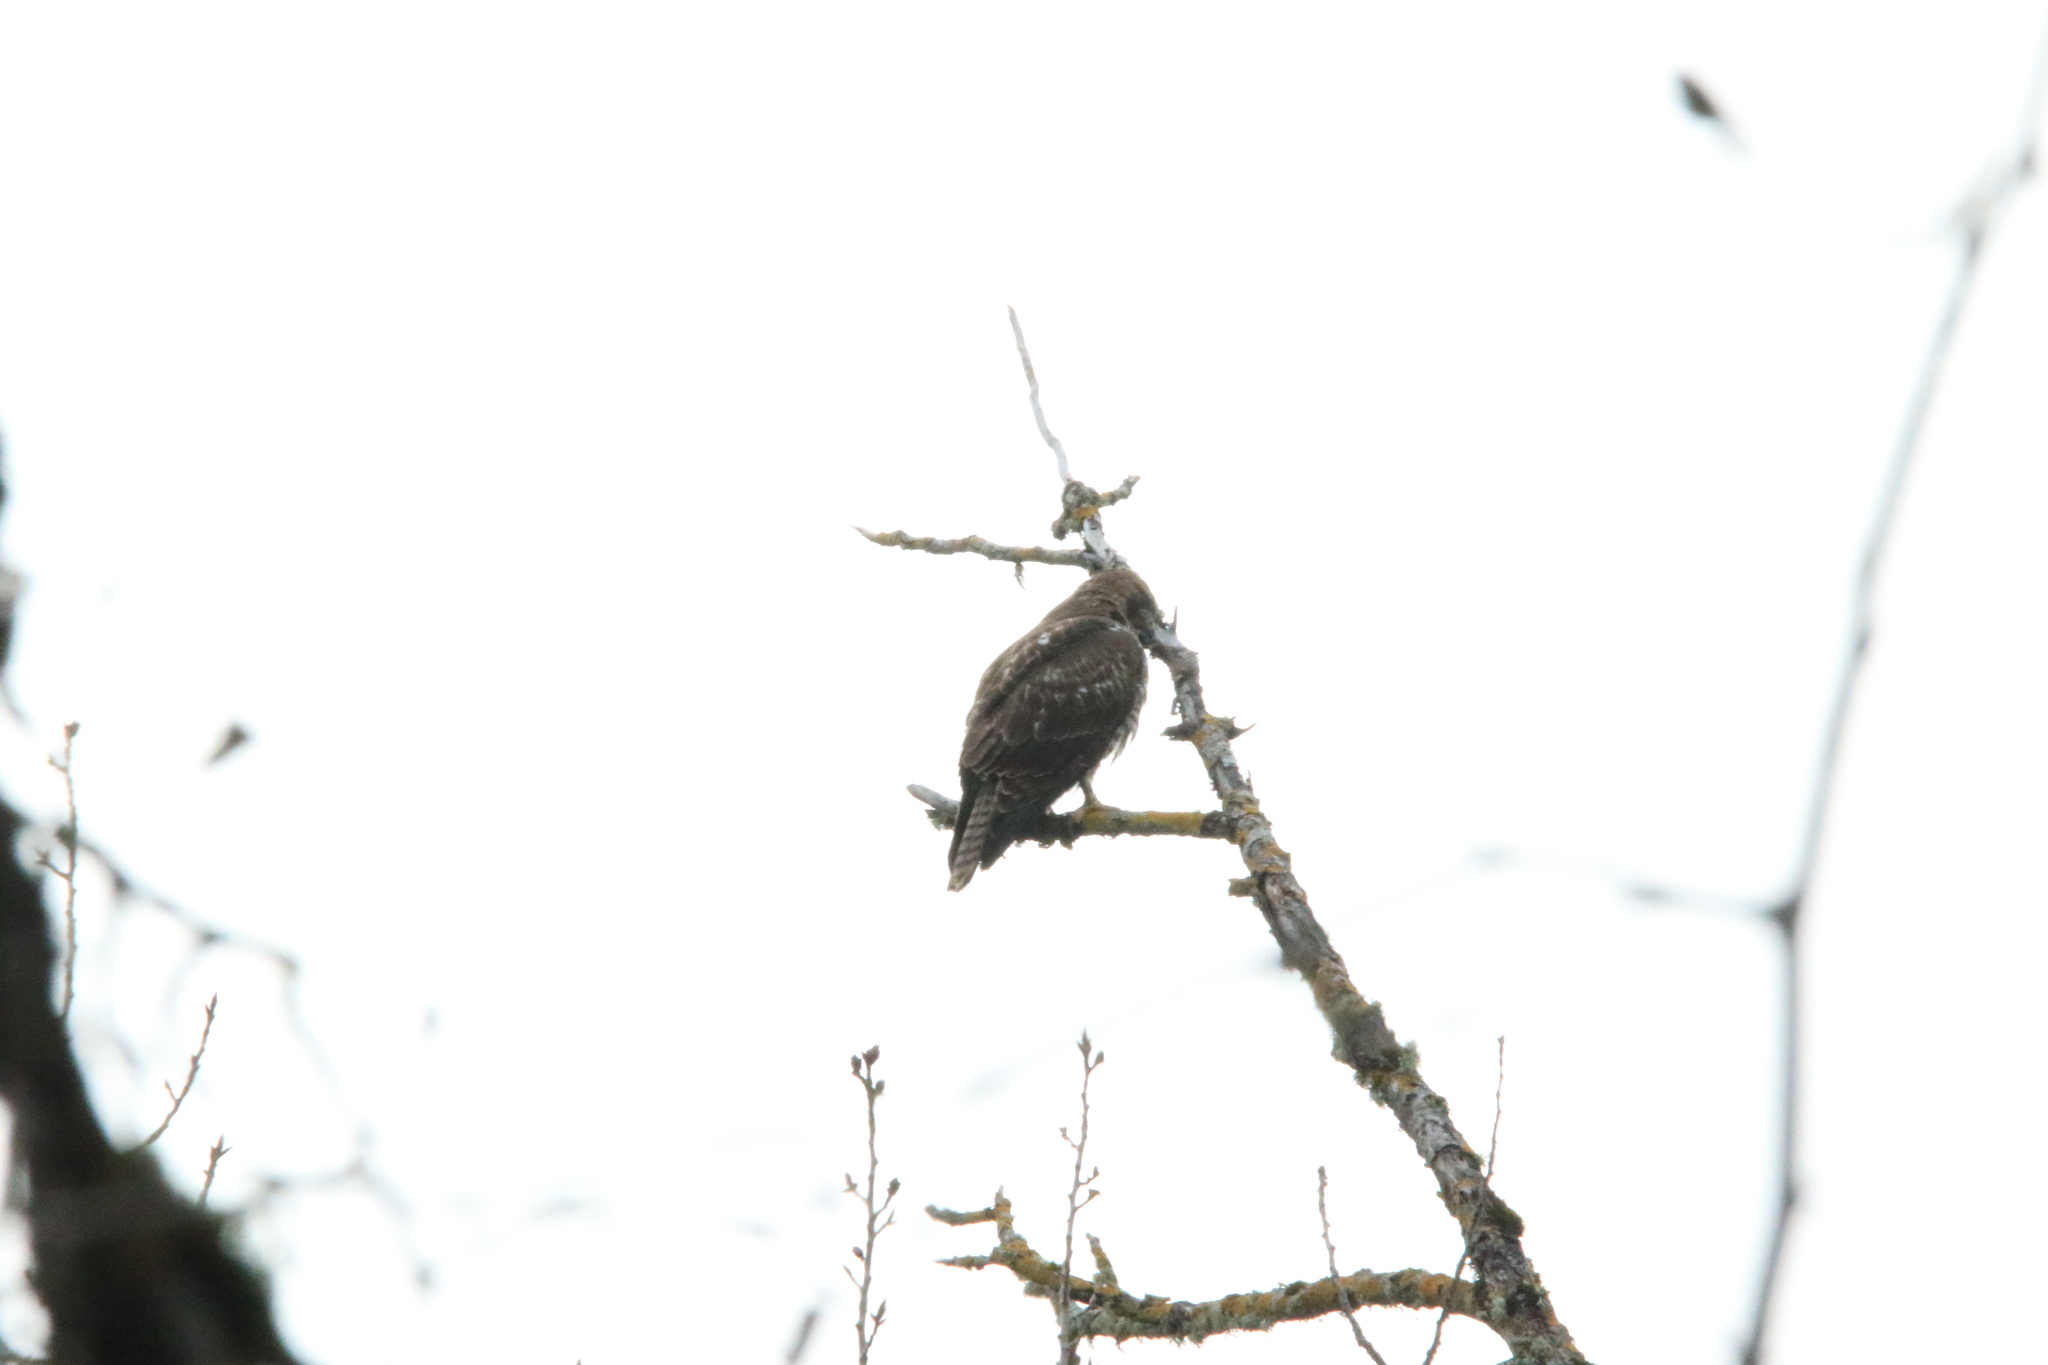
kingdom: Animalia
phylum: Chordata
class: Aves
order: Accipitriformes
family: Accipitridae
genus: Buteo
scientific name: Buteo jamaicensis
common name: Red-tailed hawk
